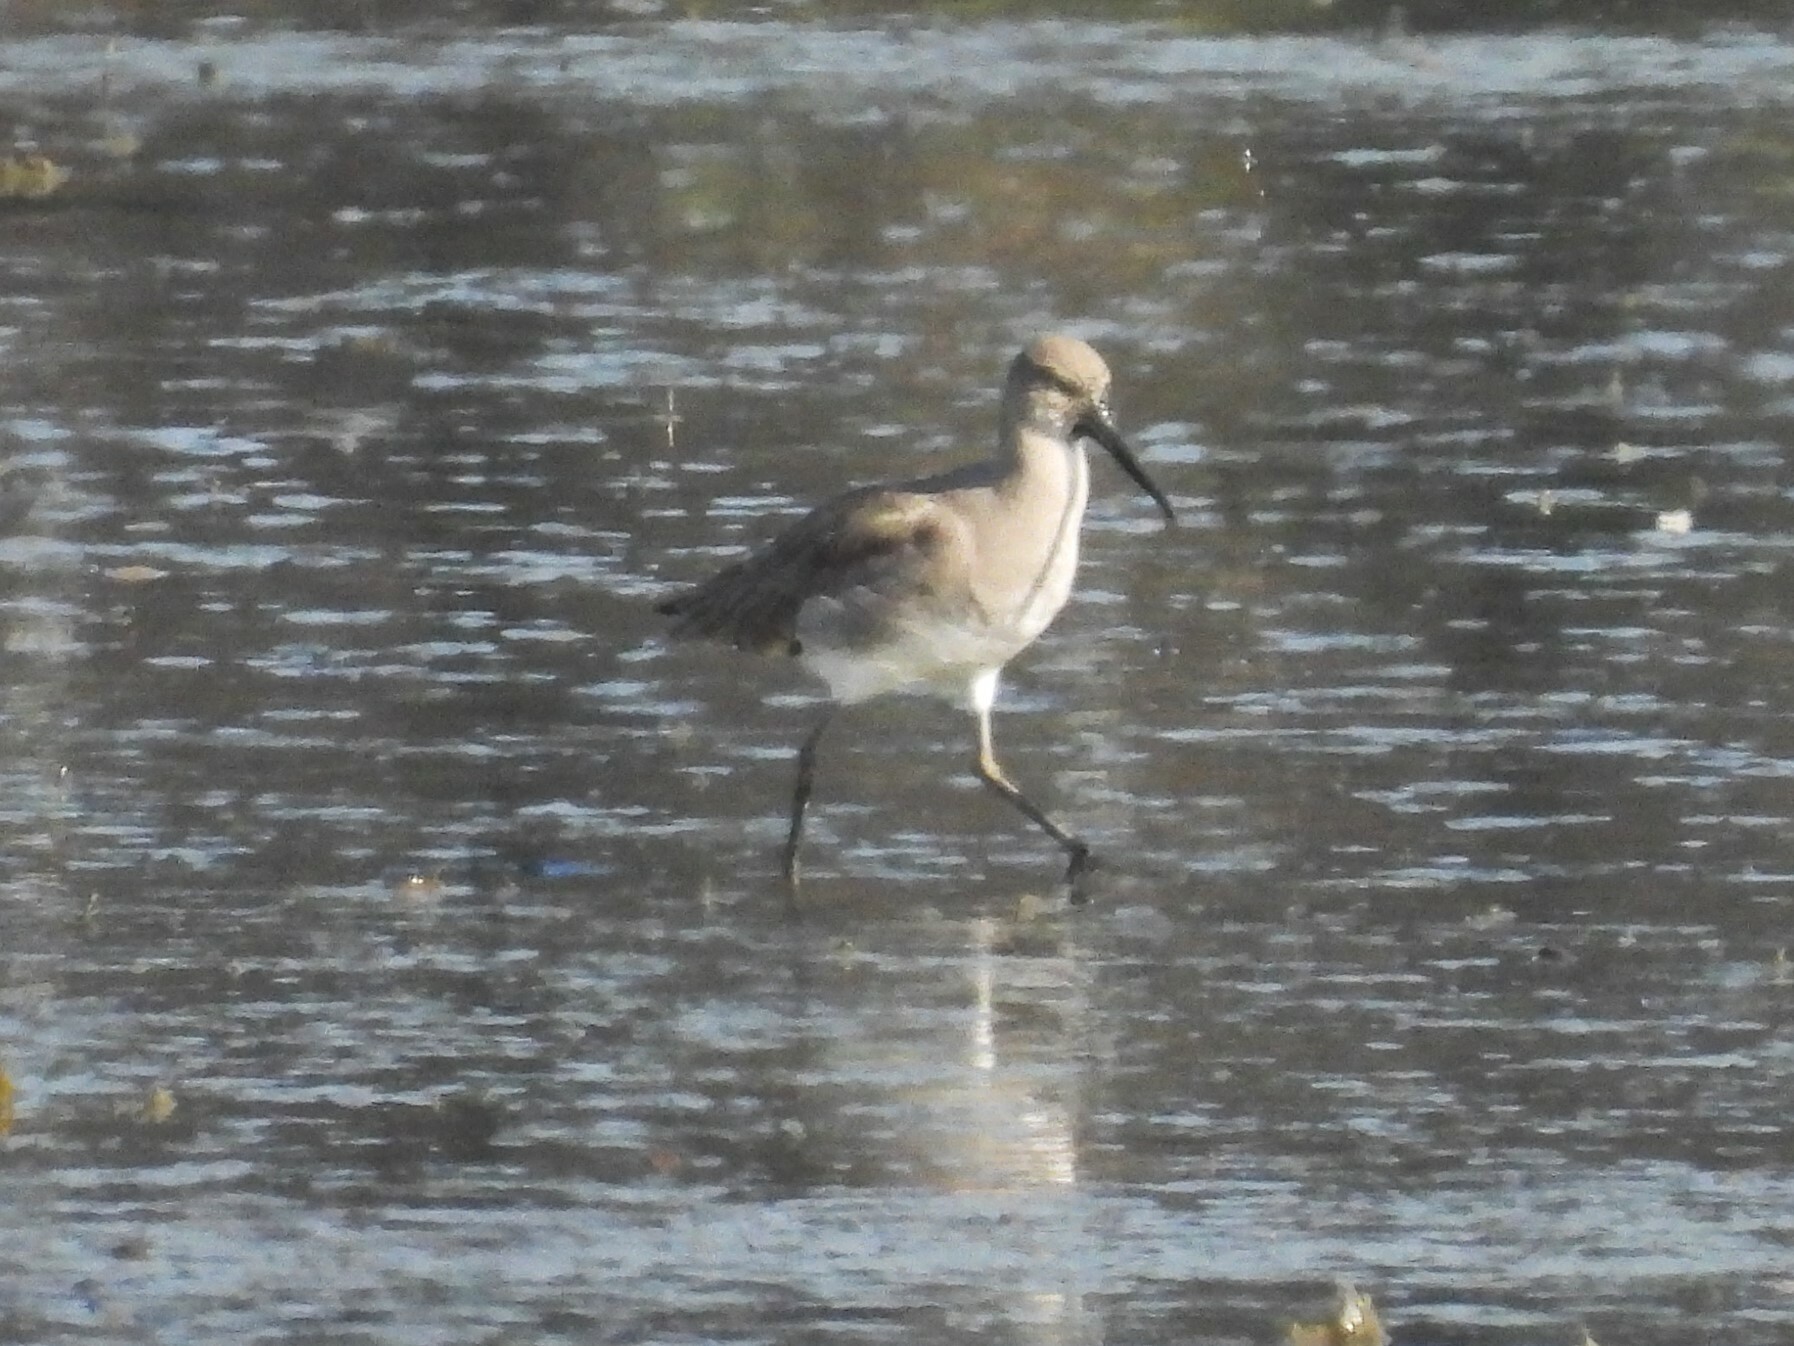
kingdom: Animalia
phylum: Chordata
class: Aves
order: Charadriiformes
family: Scolopacidae
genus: Tringa
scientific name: Tringa semipalmata
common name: Willet
